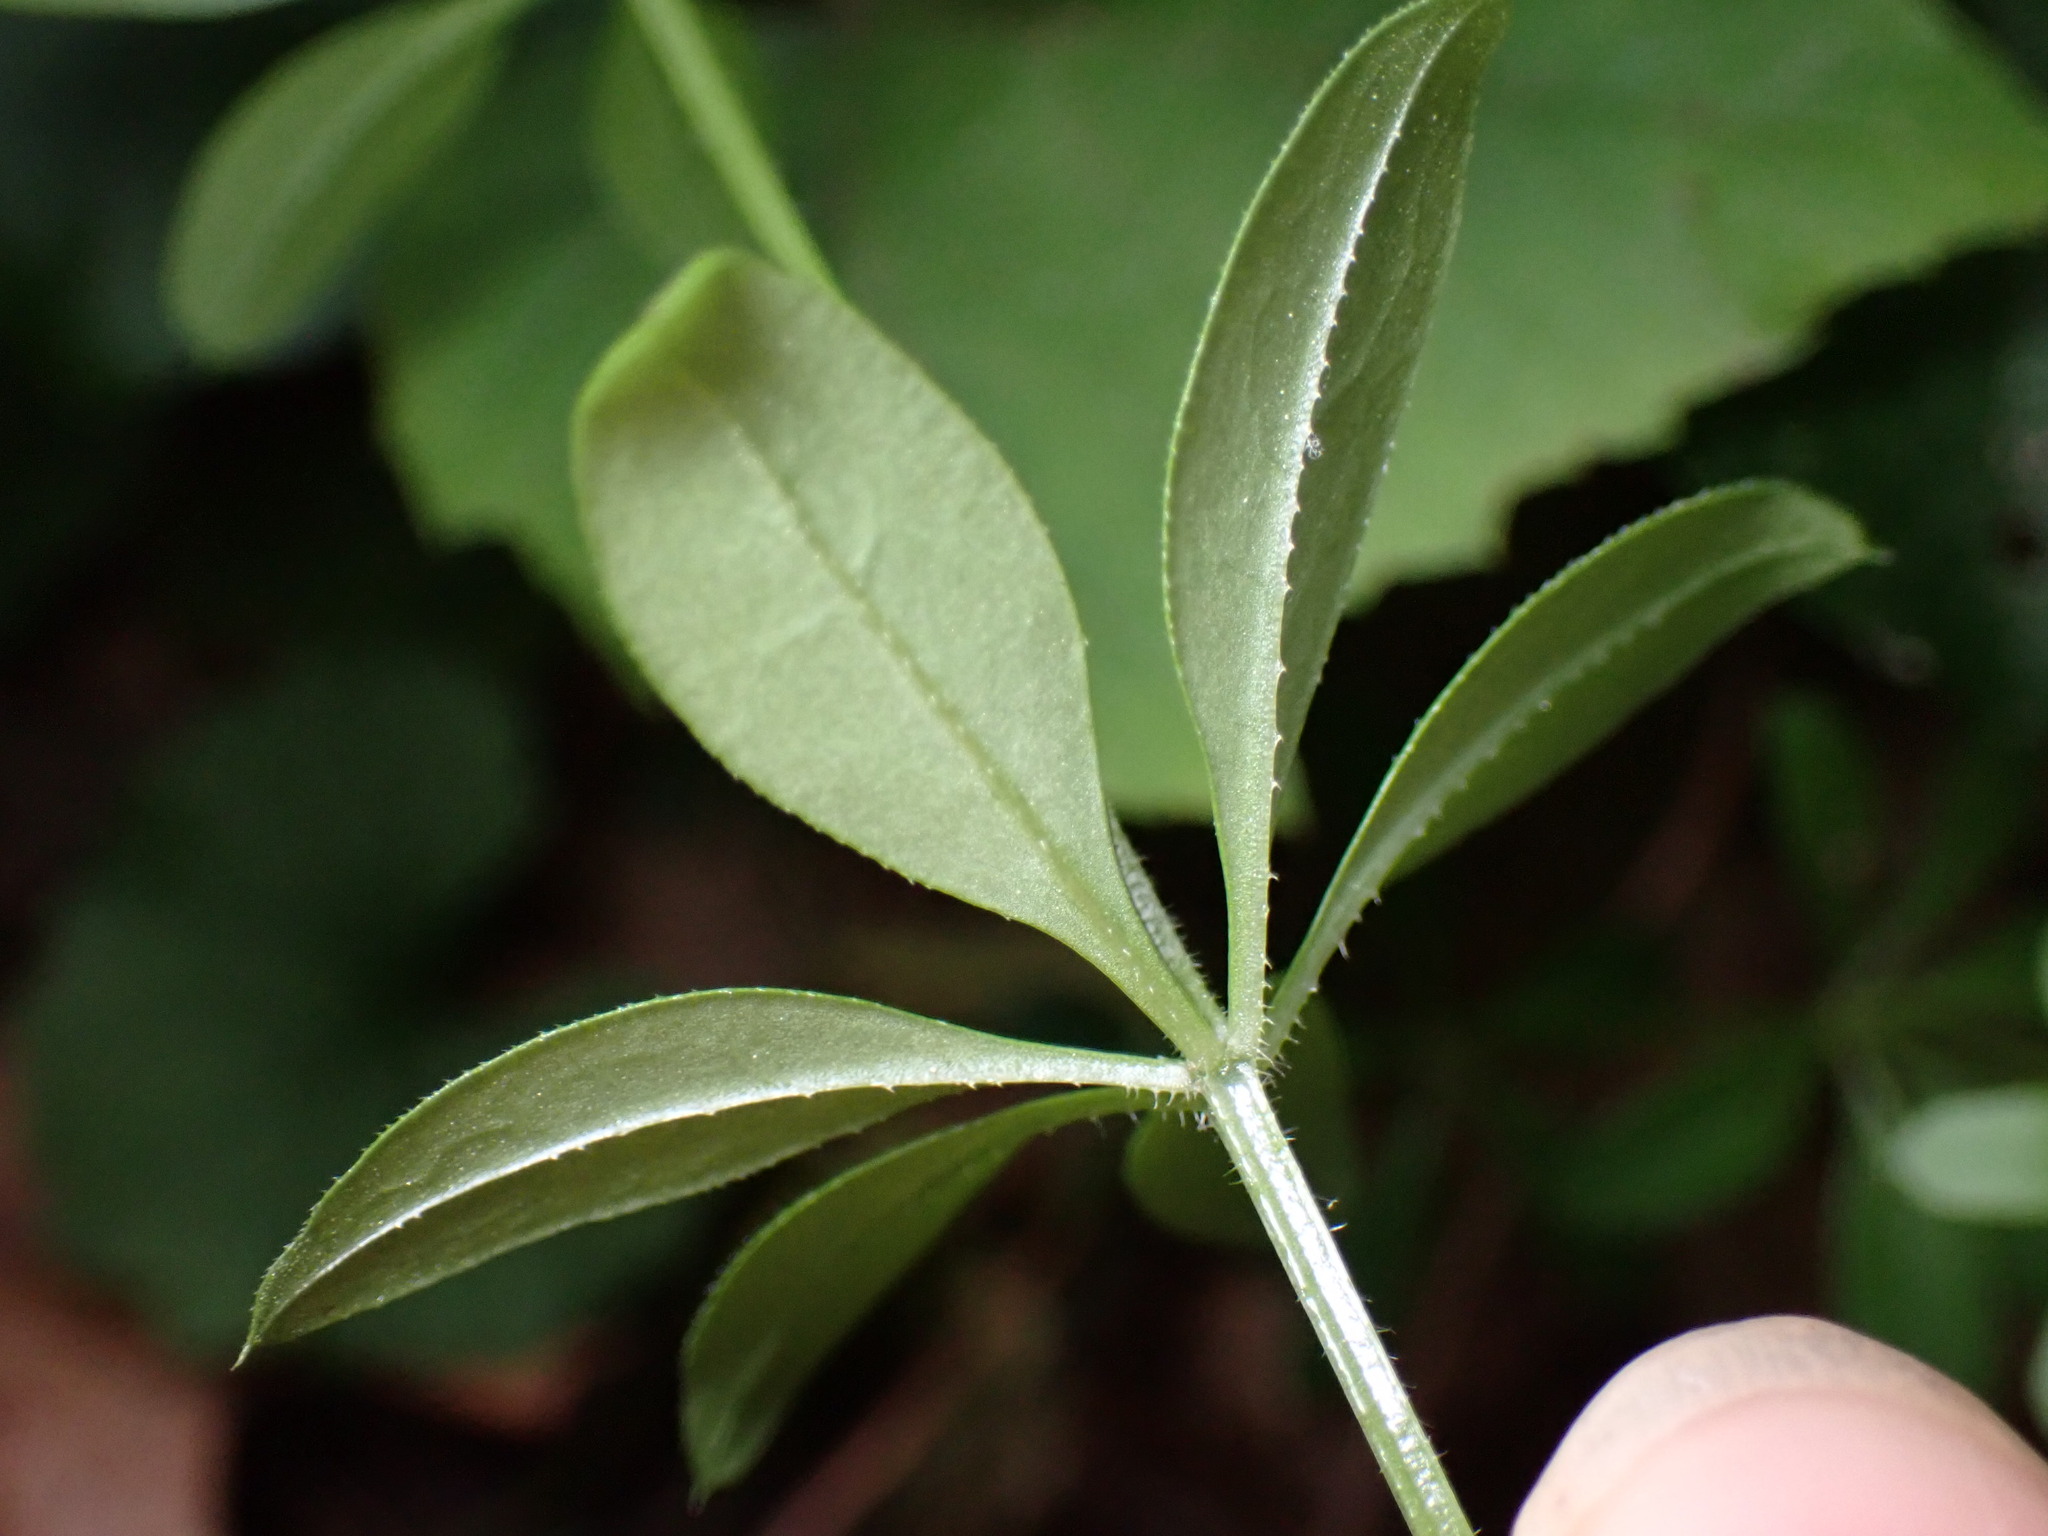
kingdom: Plantae
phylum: Tracheophyta
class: Magnoliopsida
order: Gentianales
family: Rubiaceae
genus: Galium
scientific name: Galium triflorum
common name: Fragrant bedstraw
